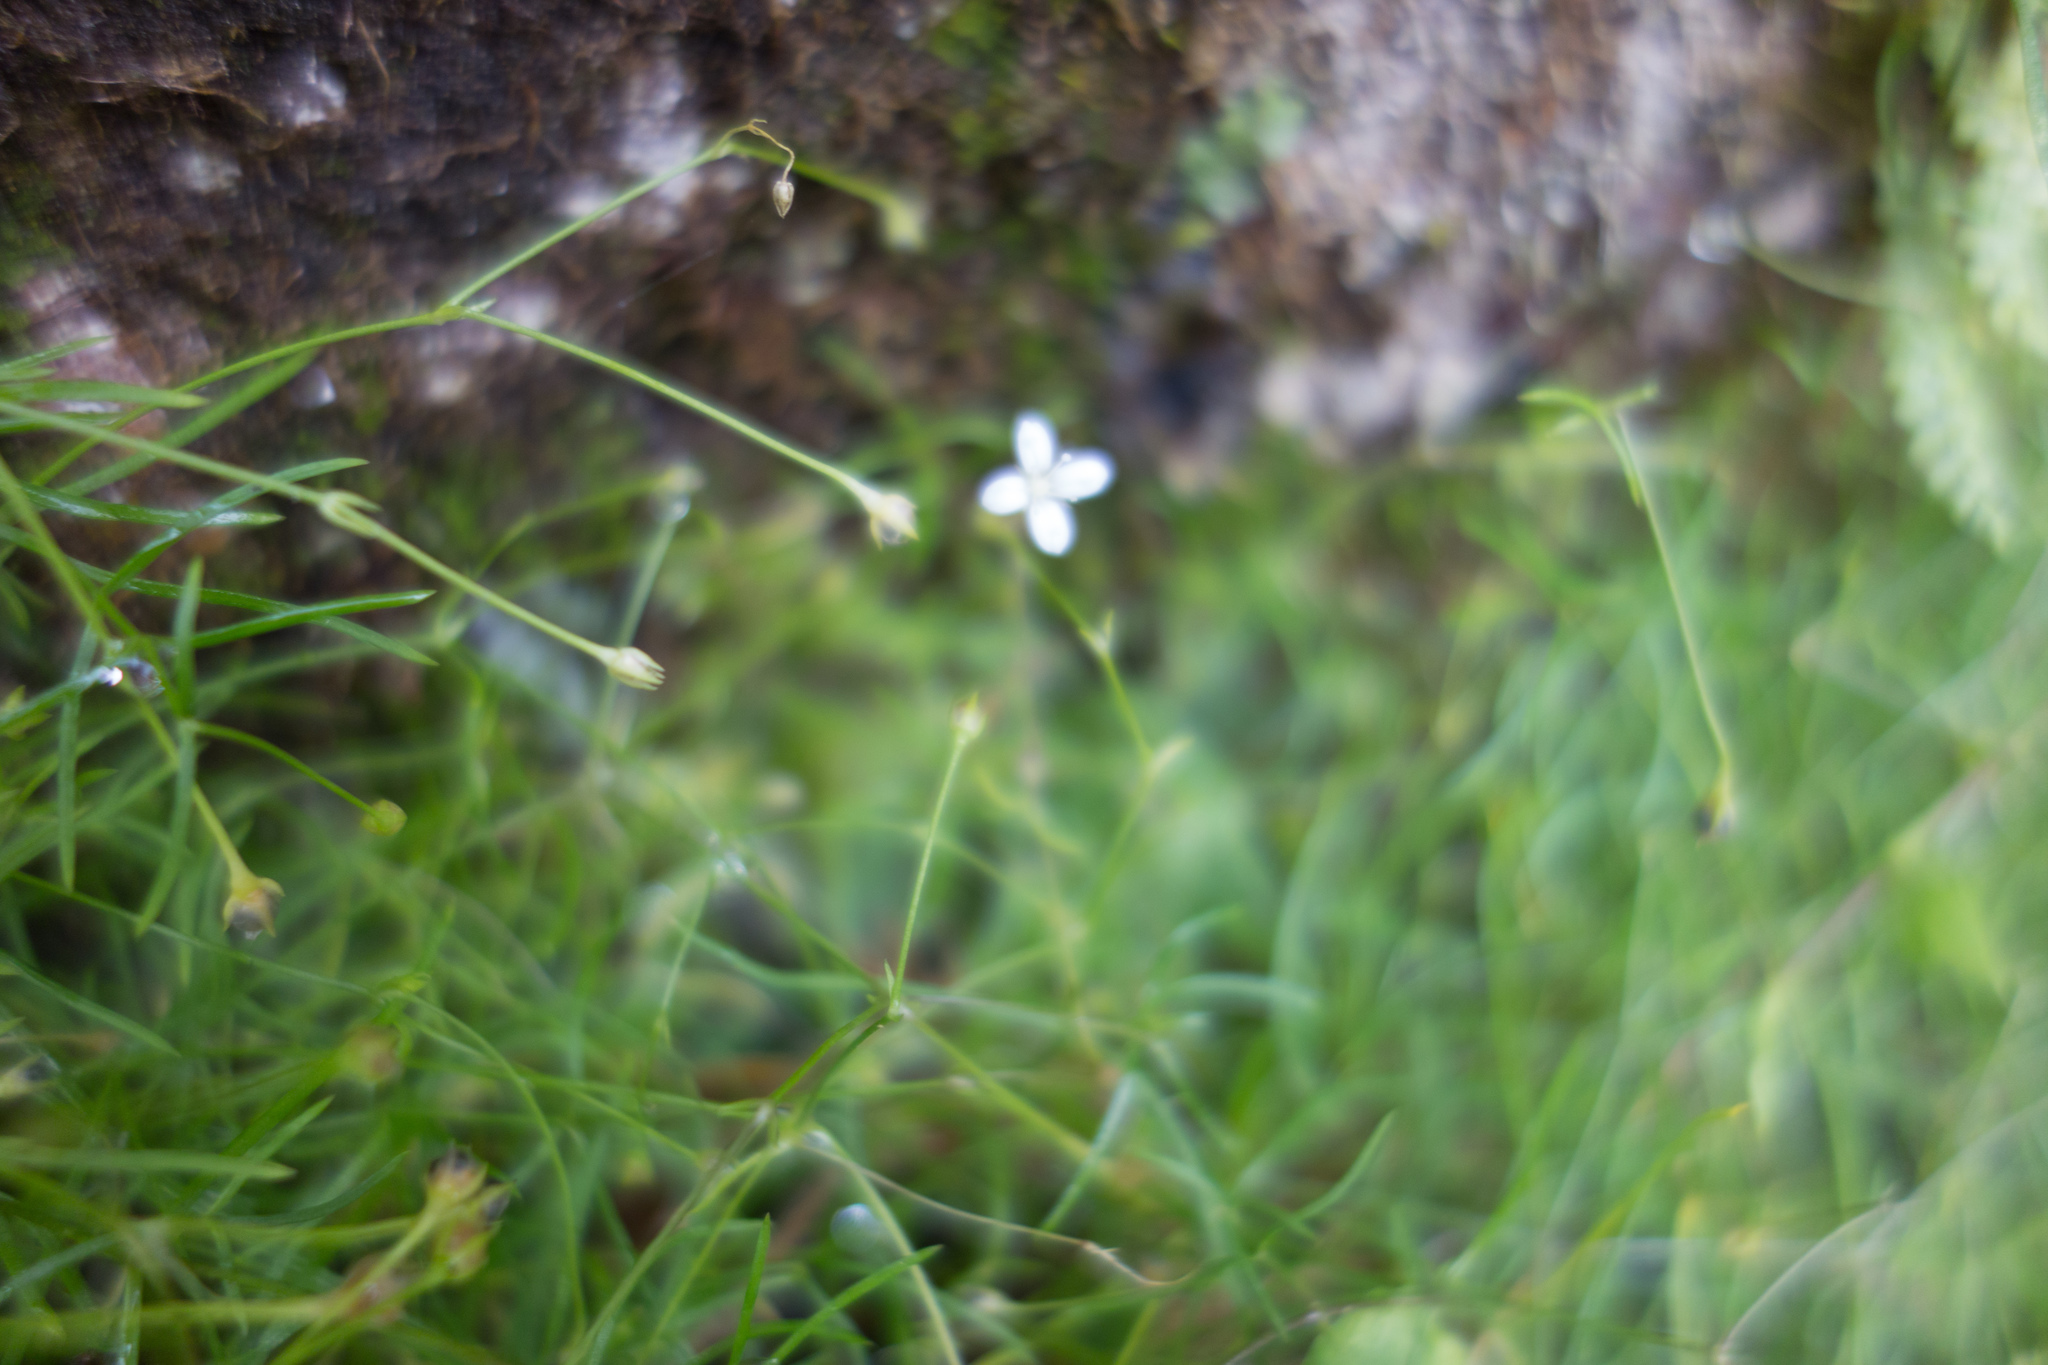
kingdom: Plantae
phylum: Tracheophyta
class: Magnoliopsida
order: Caryophyllales
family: Caryophyllaceae
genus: Moehringia
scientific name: Moehringia muscosa
